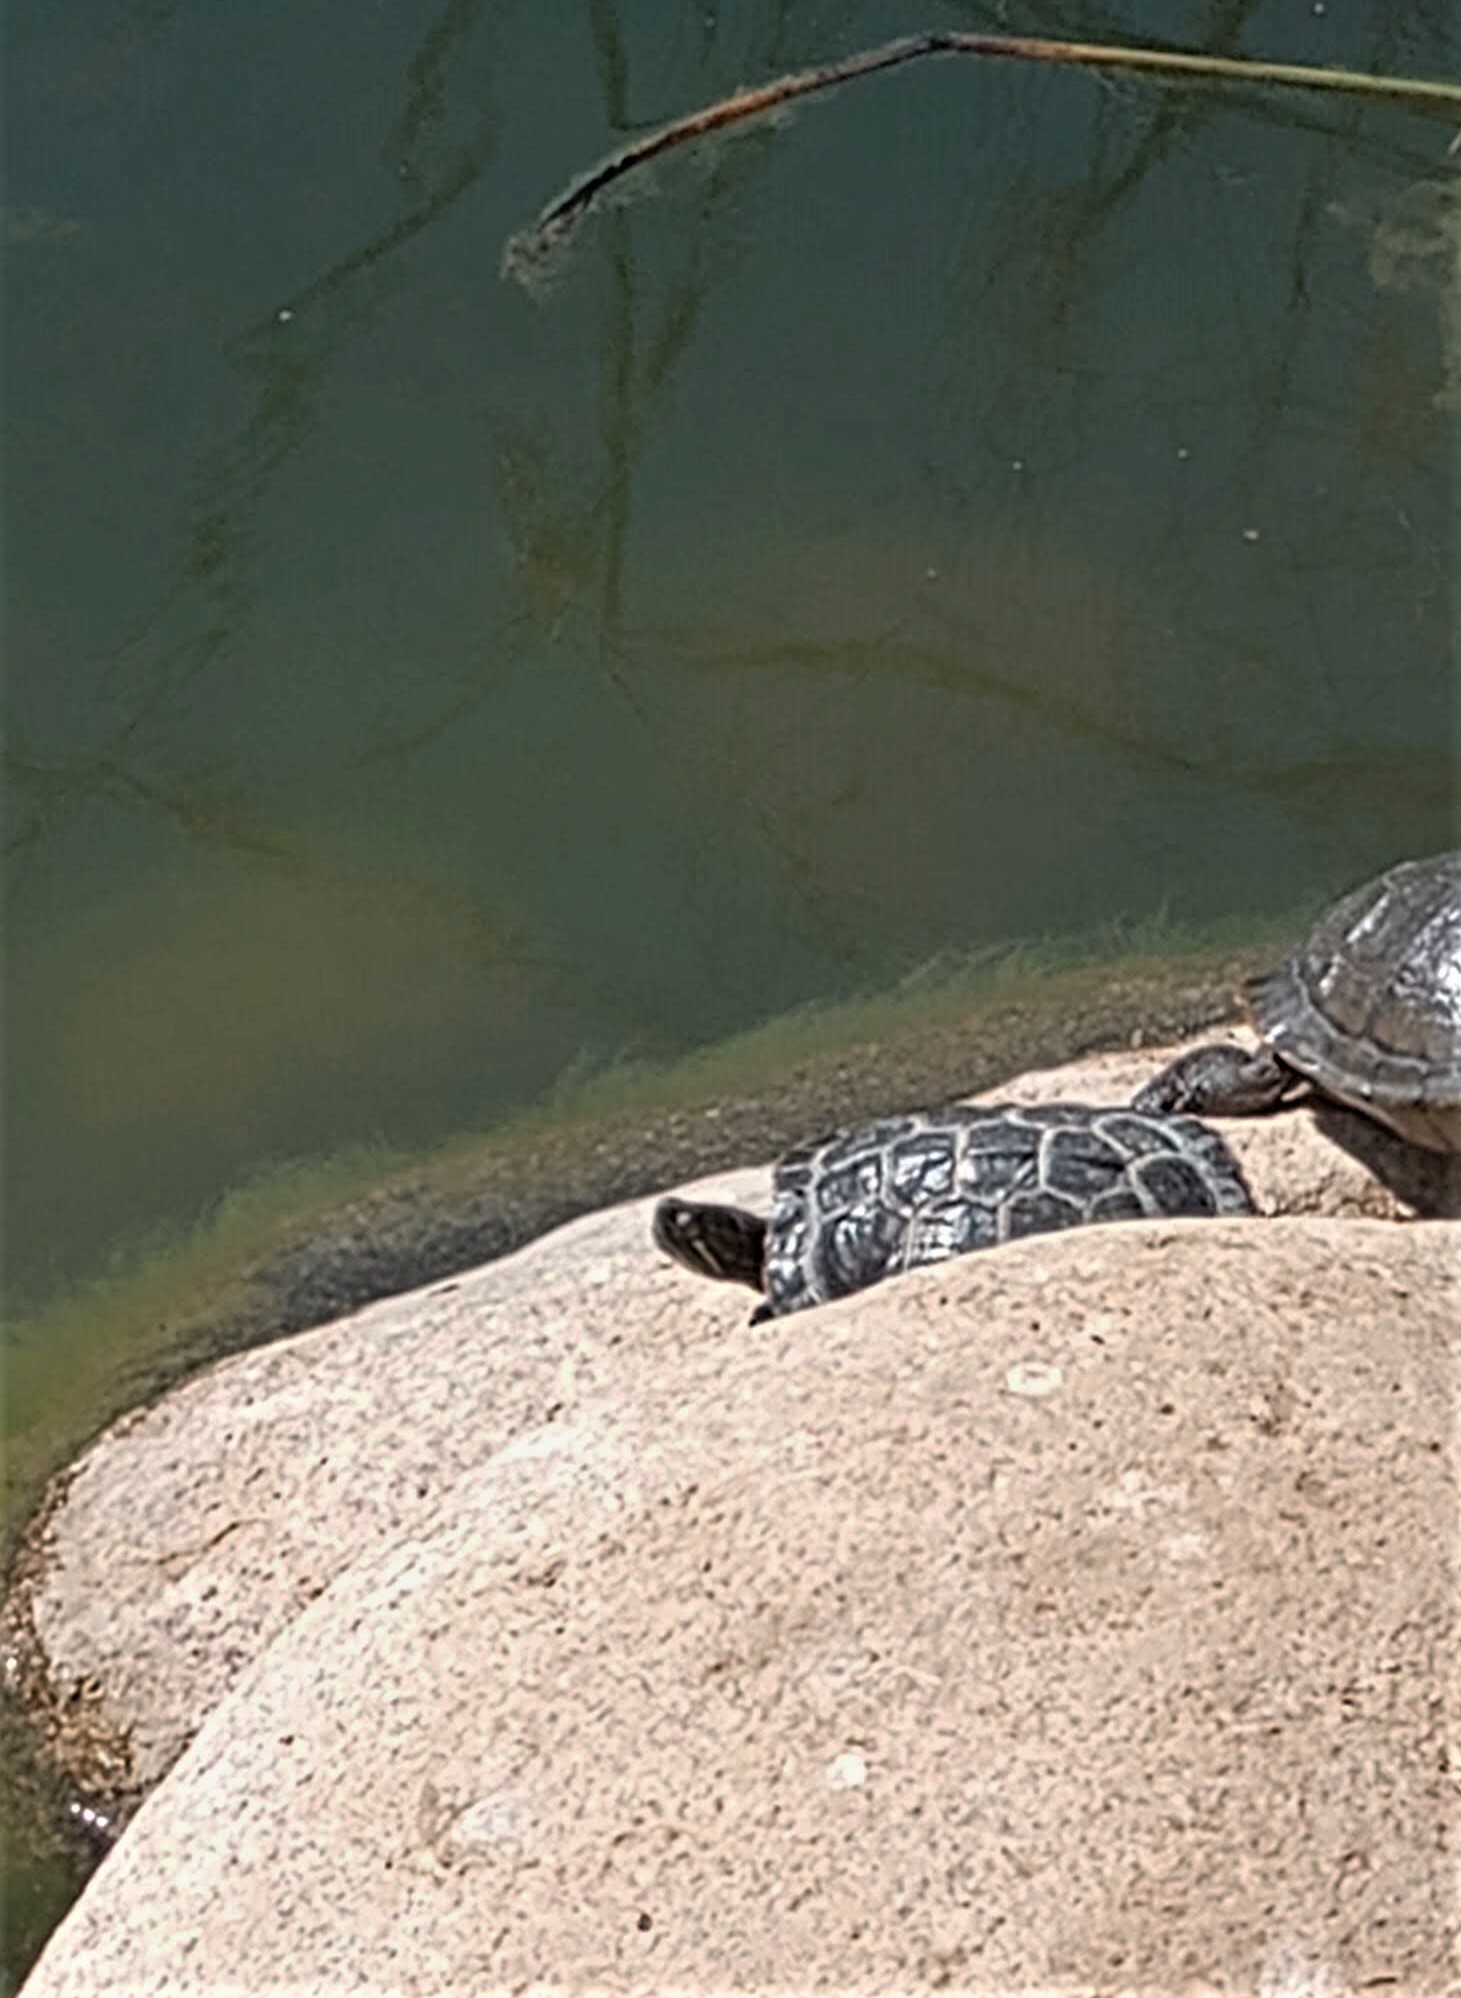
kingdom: Animalia
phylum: Chordata
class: Testudines
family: Emydidae
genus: Trachemys
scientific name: Trachemys scripta
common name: Slider
